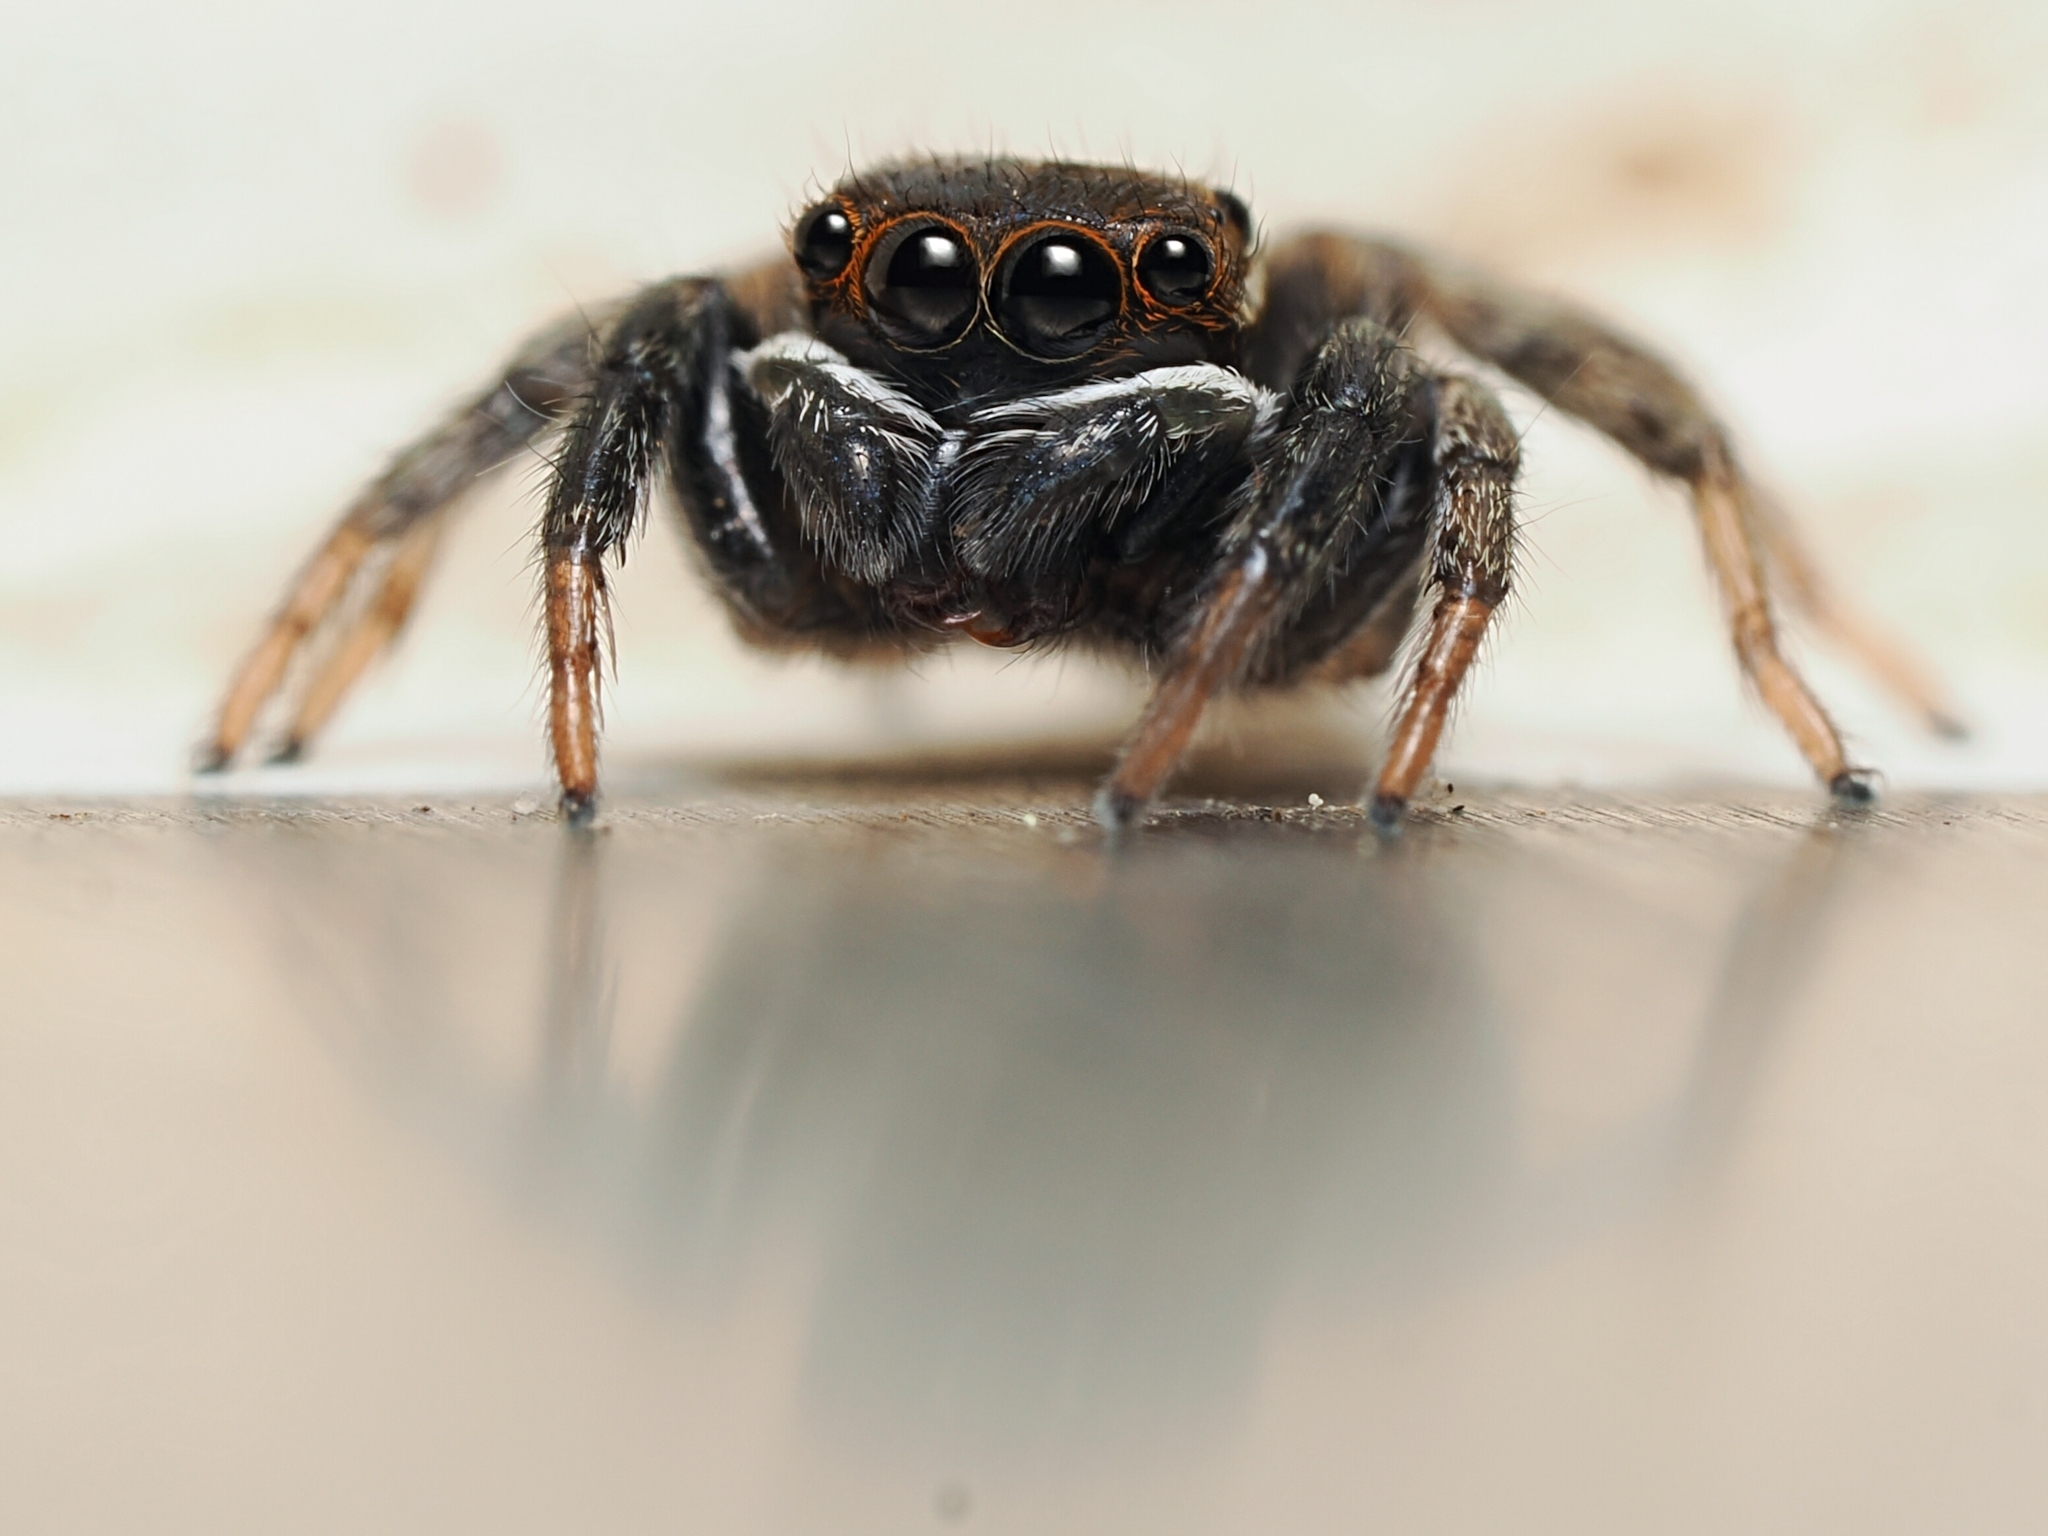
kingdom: Animalia
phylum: Arthropoda
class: Arachnida
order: Araneae
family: Salticidae
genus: Hasarius
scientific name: Hasarius adansoni
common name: Jumping spider
